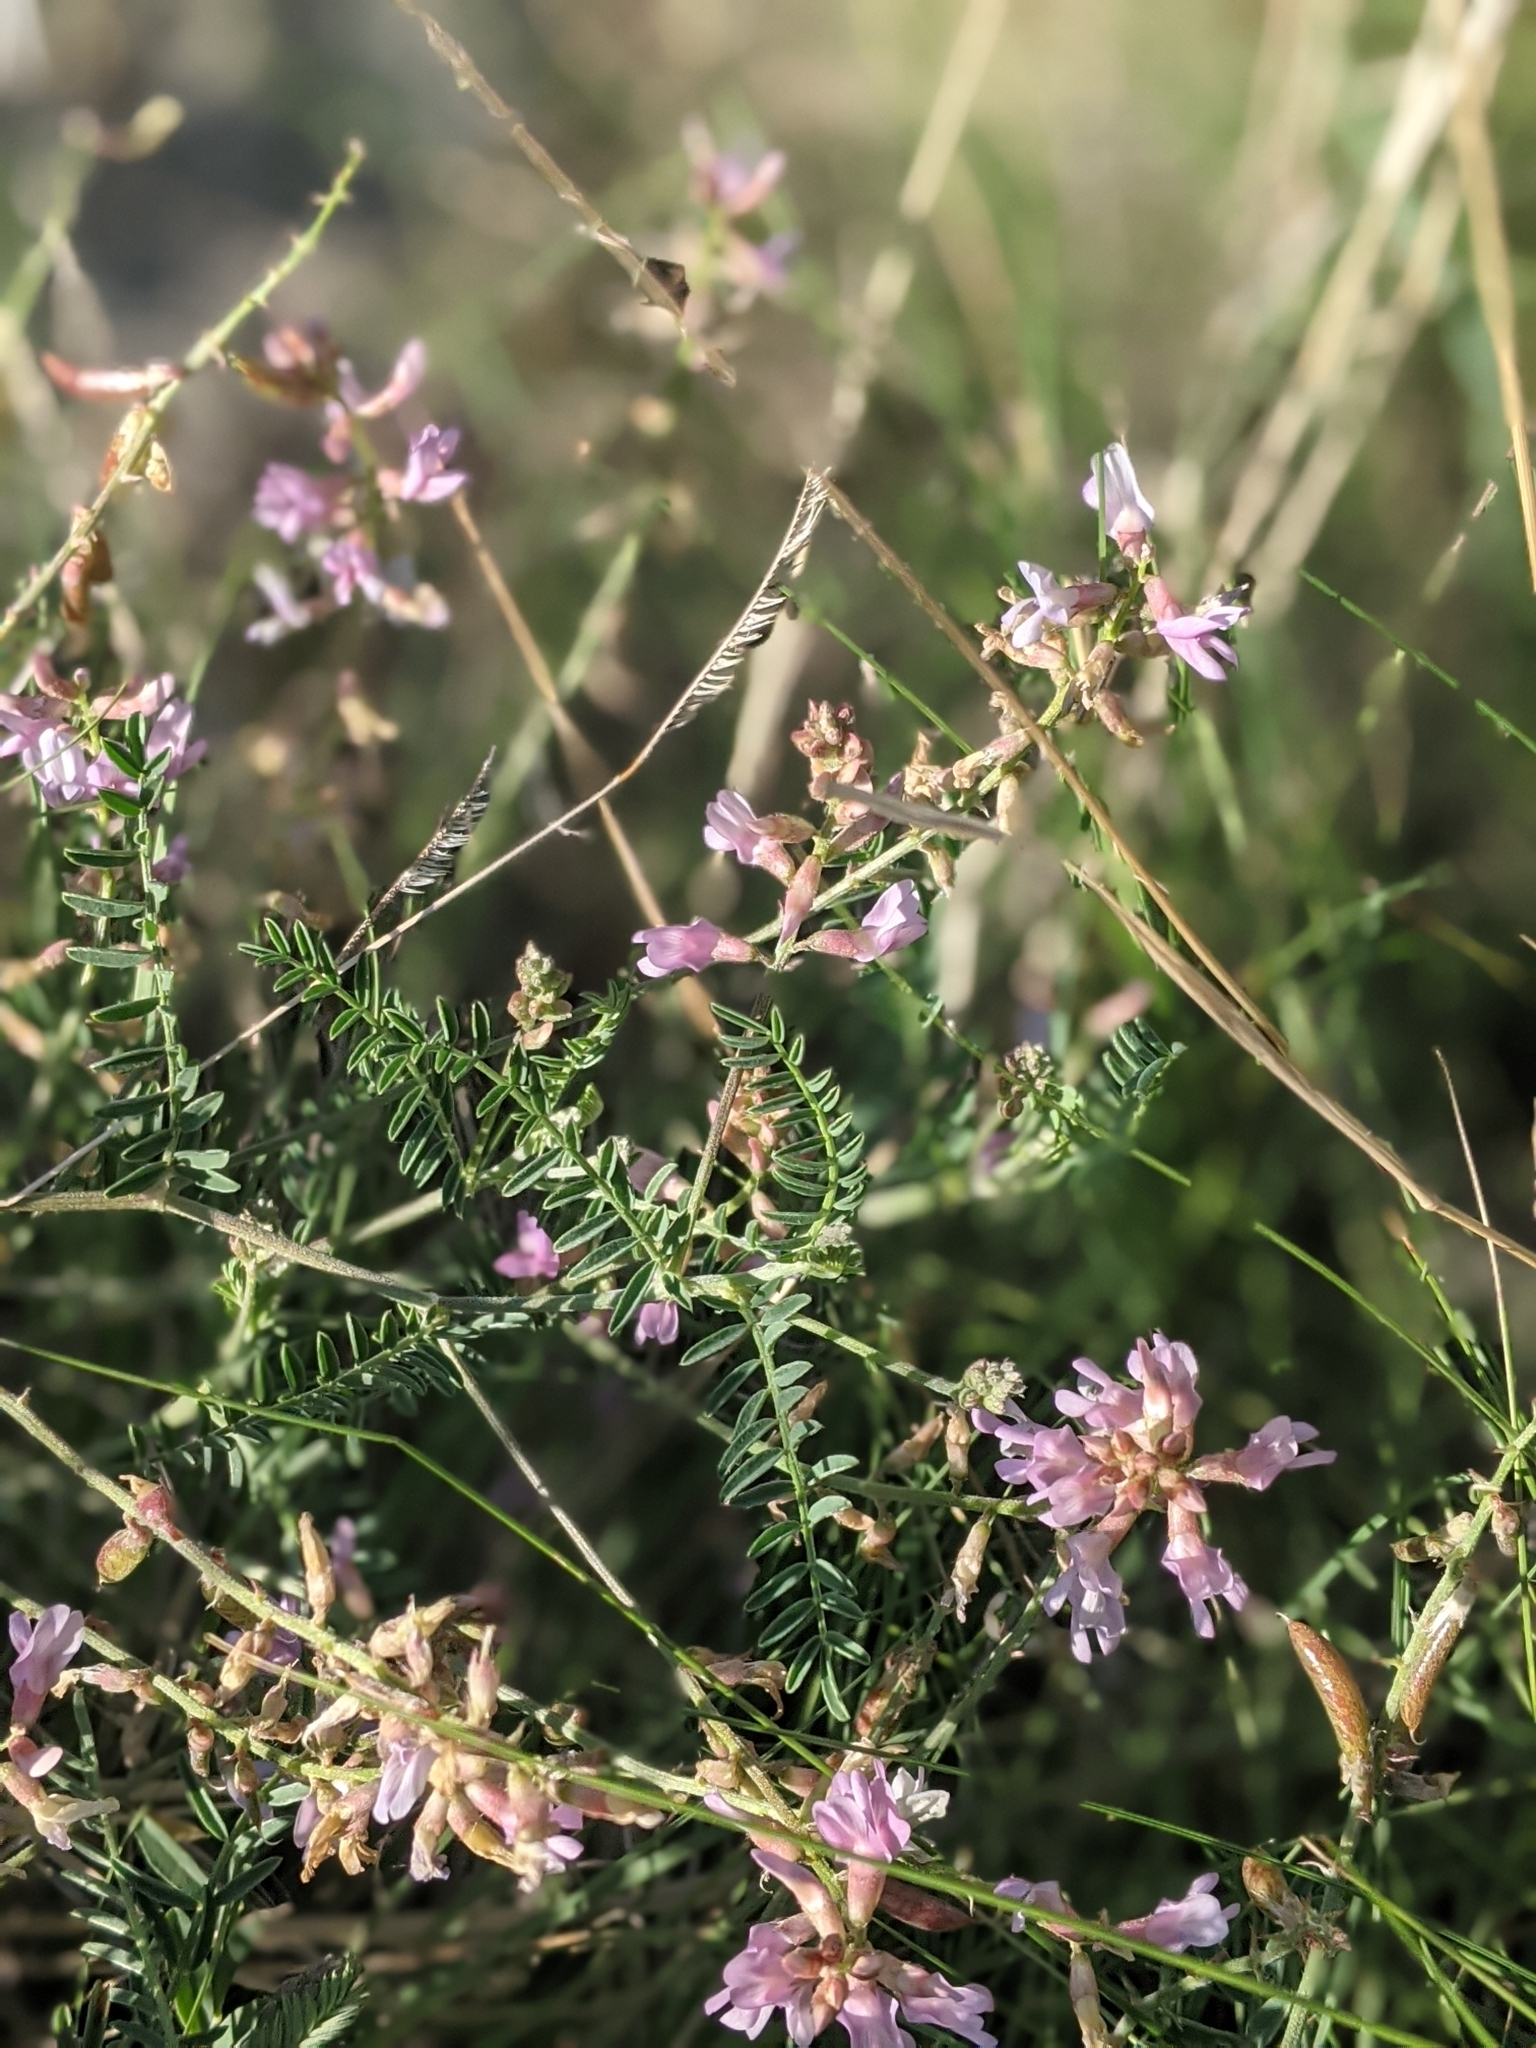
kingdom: Plantae
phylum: Tracheophyta
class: Magnoliopsida
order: Fabales
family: Fabaceae
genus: Astragalus
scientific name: Astragalus flexuosus
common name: Pliant milk-vetch
